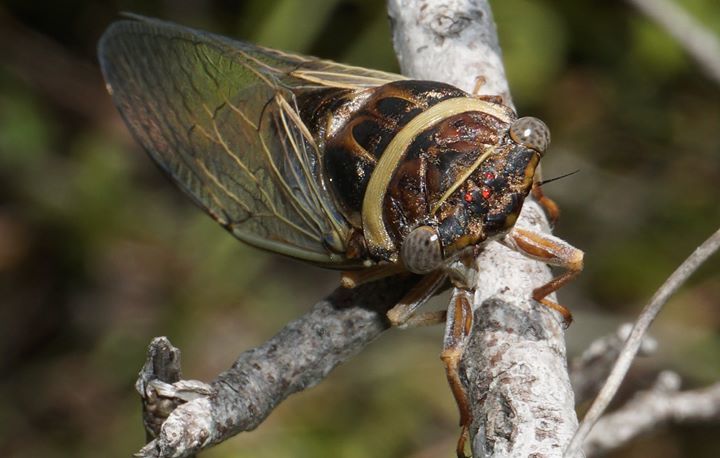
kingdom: Animalia
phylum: Arthropoda
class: Insecta
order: Hemiptera
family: Cicadidae
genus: Diceroprocta
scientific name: Diceroprocta viridifascia
